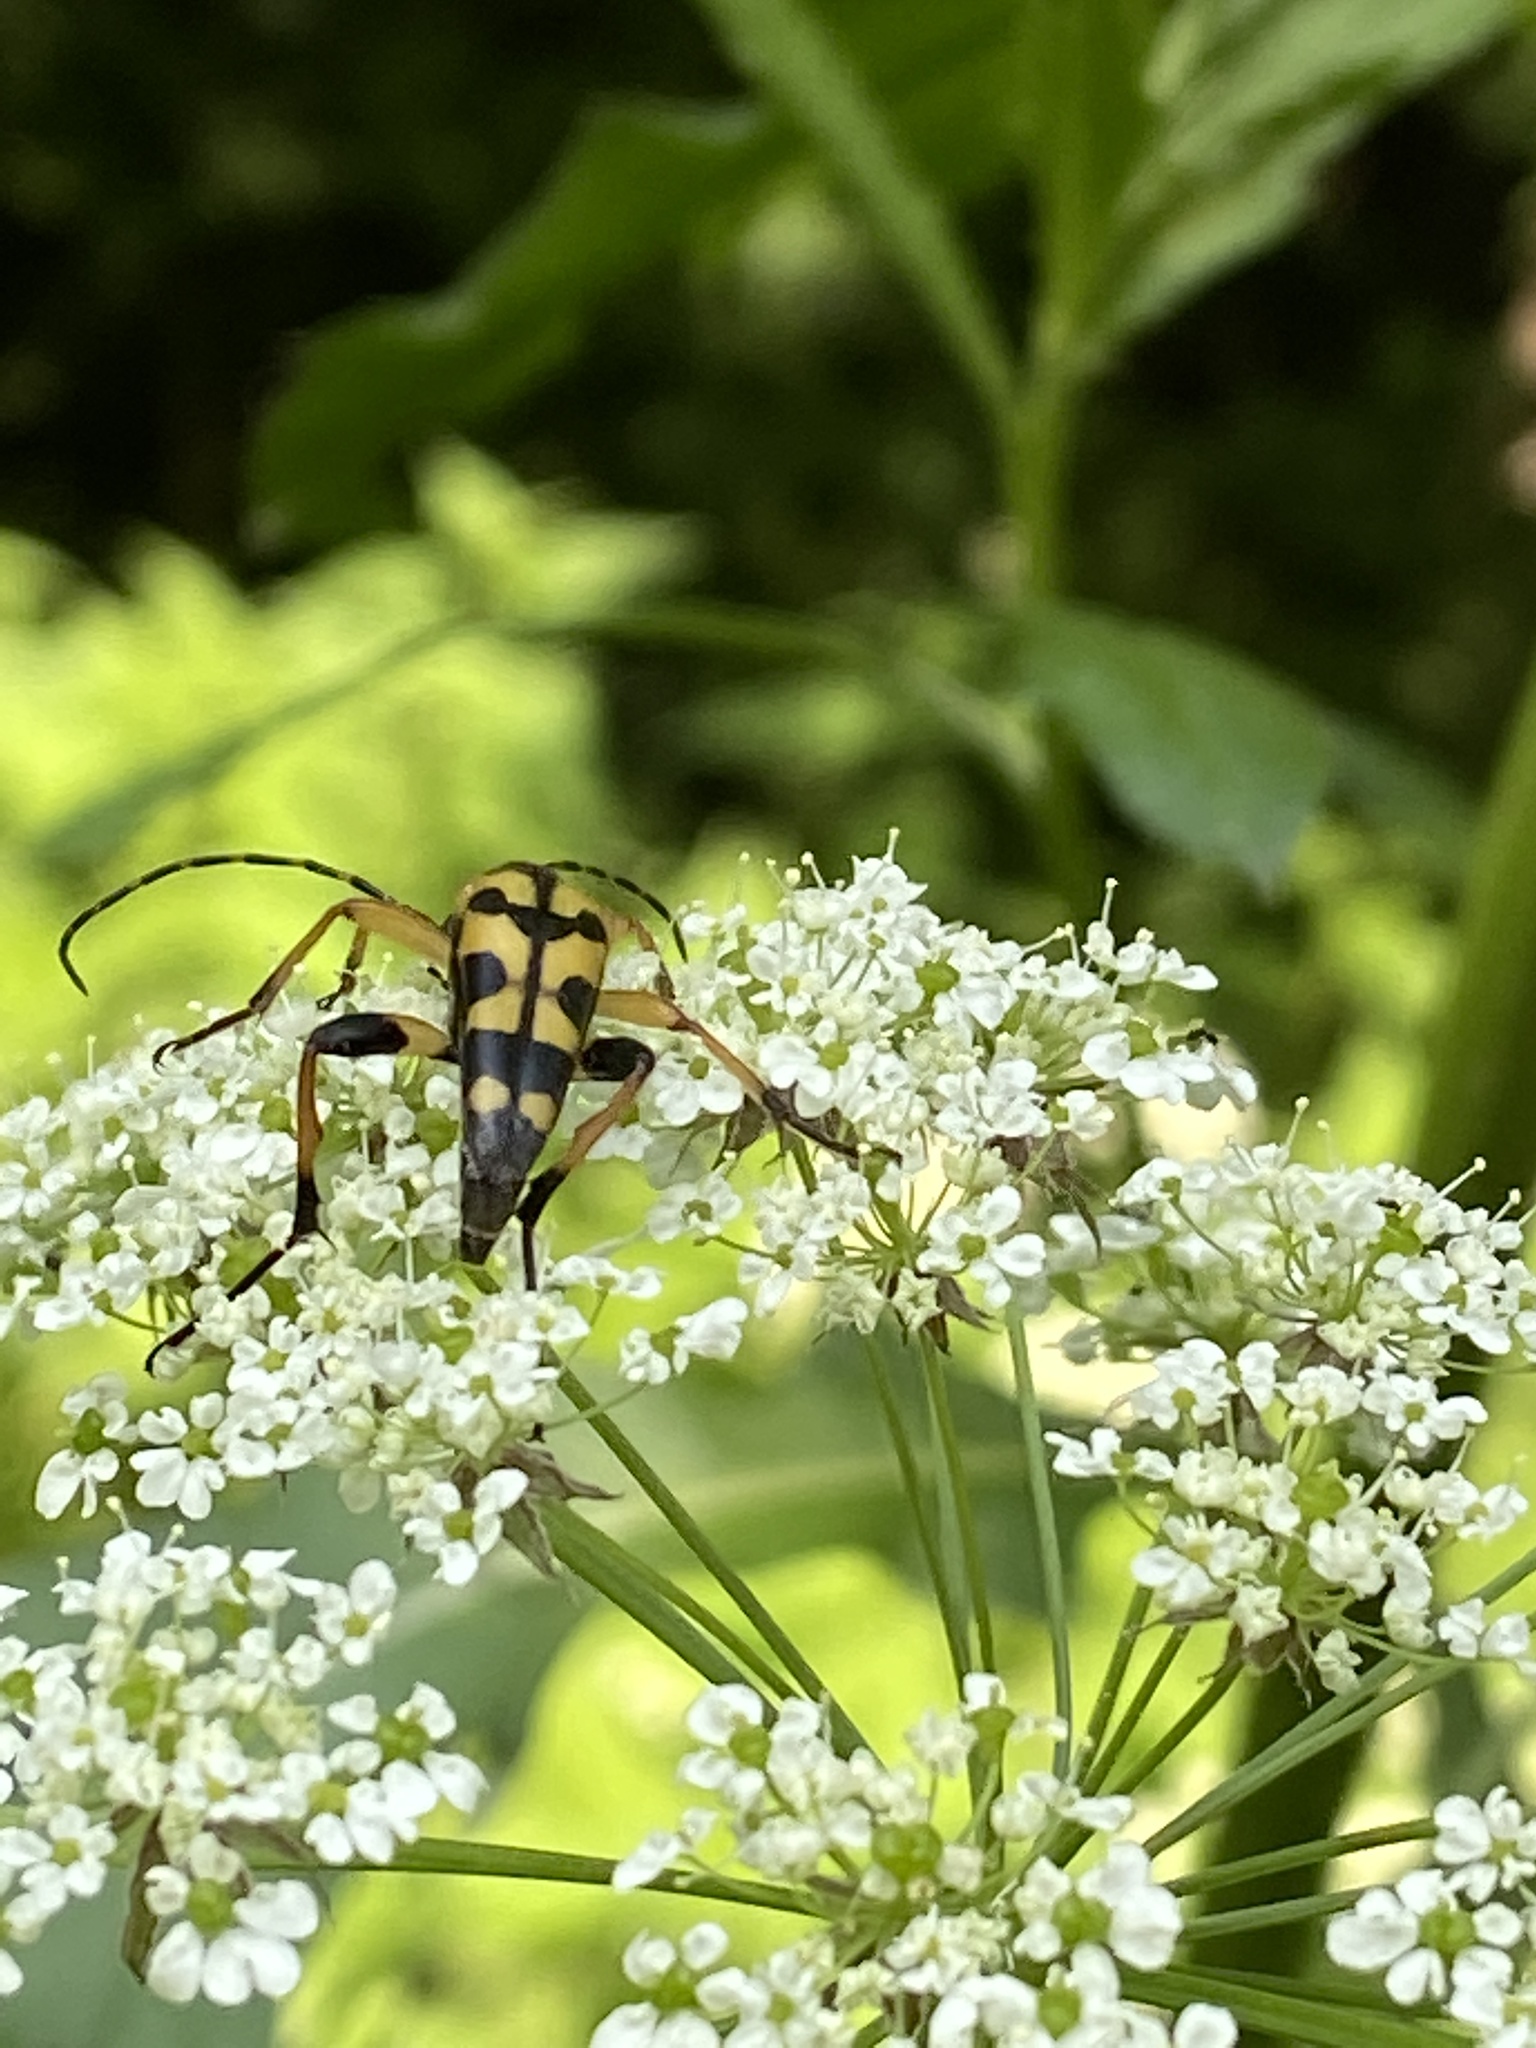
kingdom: Animalia
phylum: Arthropoda
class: Insecta
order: Coleoptera
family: Cerambycidae
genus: Rutpela
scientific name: Rutpela maculata
